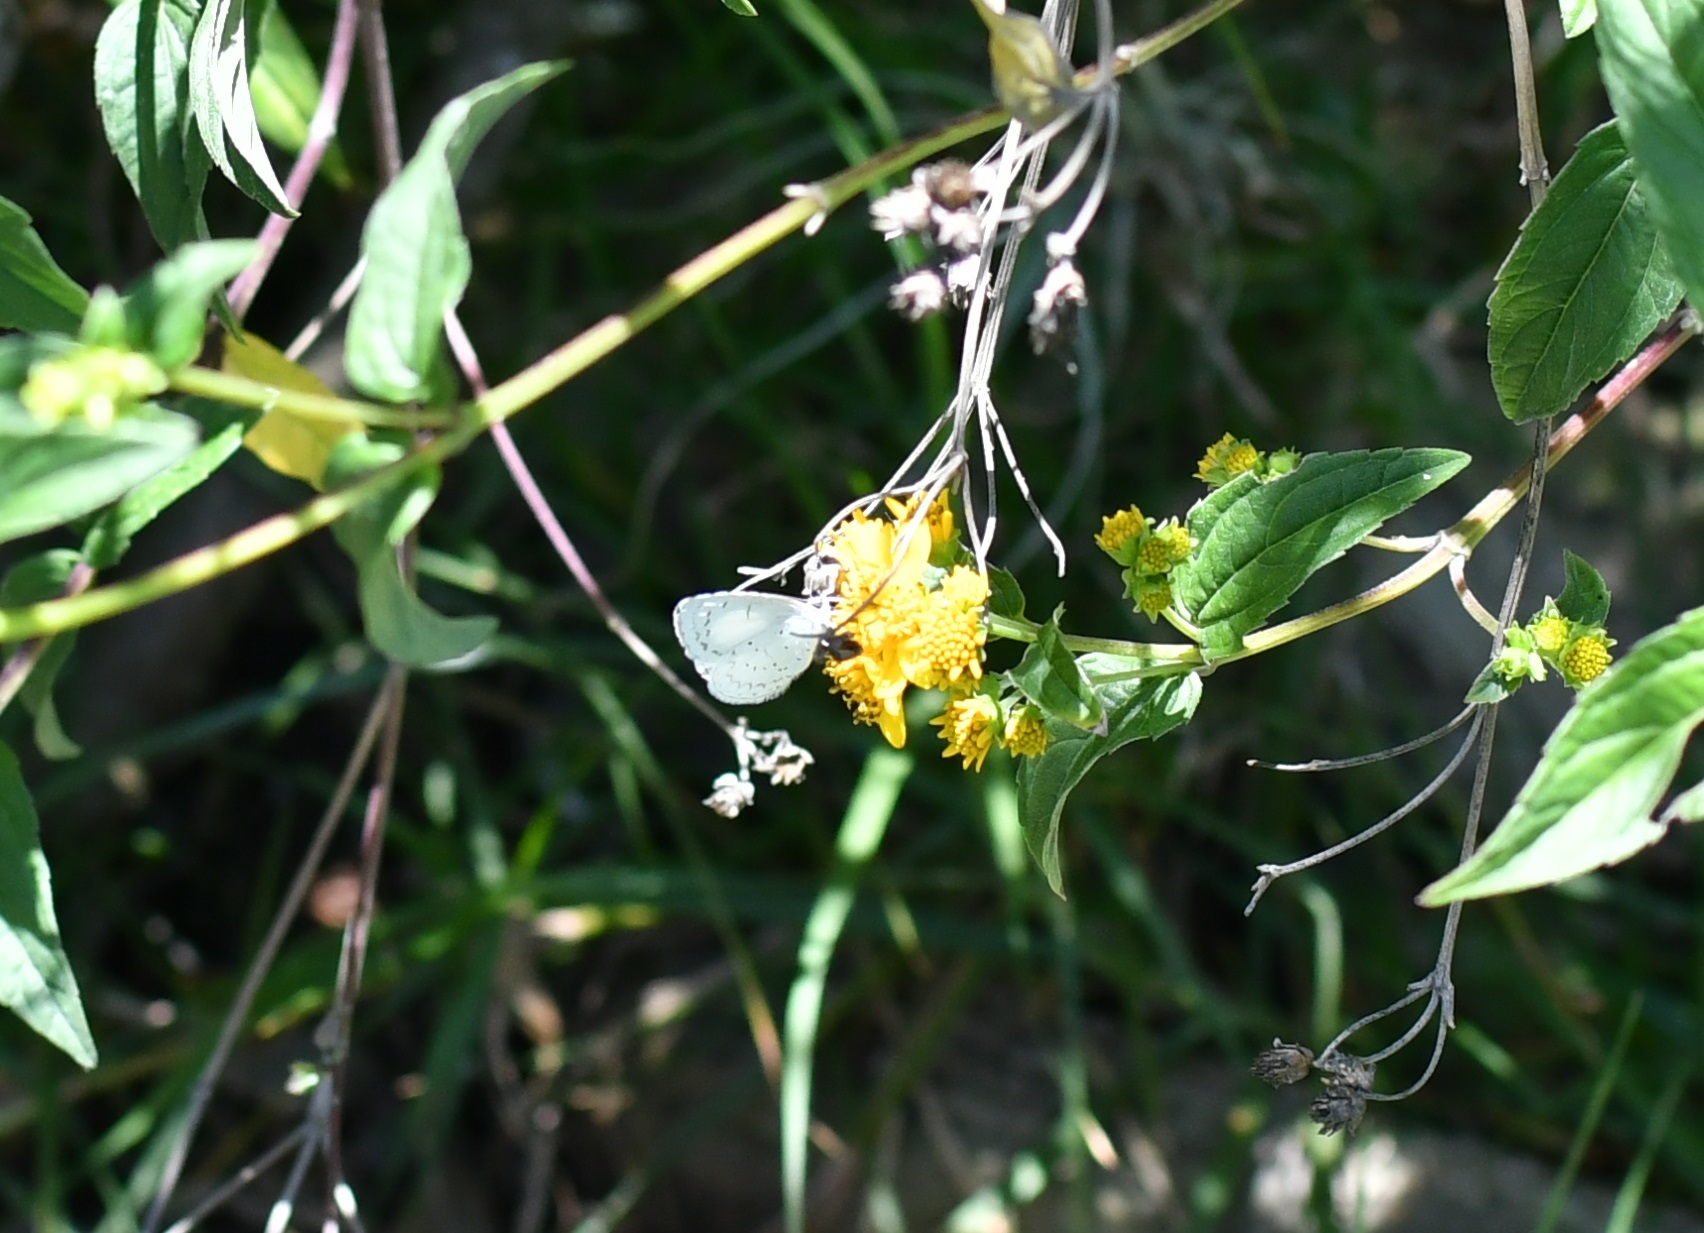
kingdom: Animalia
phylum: Arthropoda
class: Insecta
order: Lepidoptera
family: Lycaenidae
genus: Celastrina
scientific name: Celastrina ladon
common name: Spring azure
